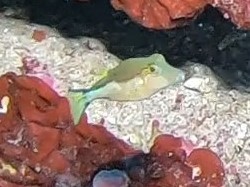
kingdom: Animalia
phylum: Chordata
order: Tetraodontiformes
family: Tetraodontidae
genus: Canthigaster
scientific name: Canthigaster rostrata
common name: Caribbean sharpnose-puffer
